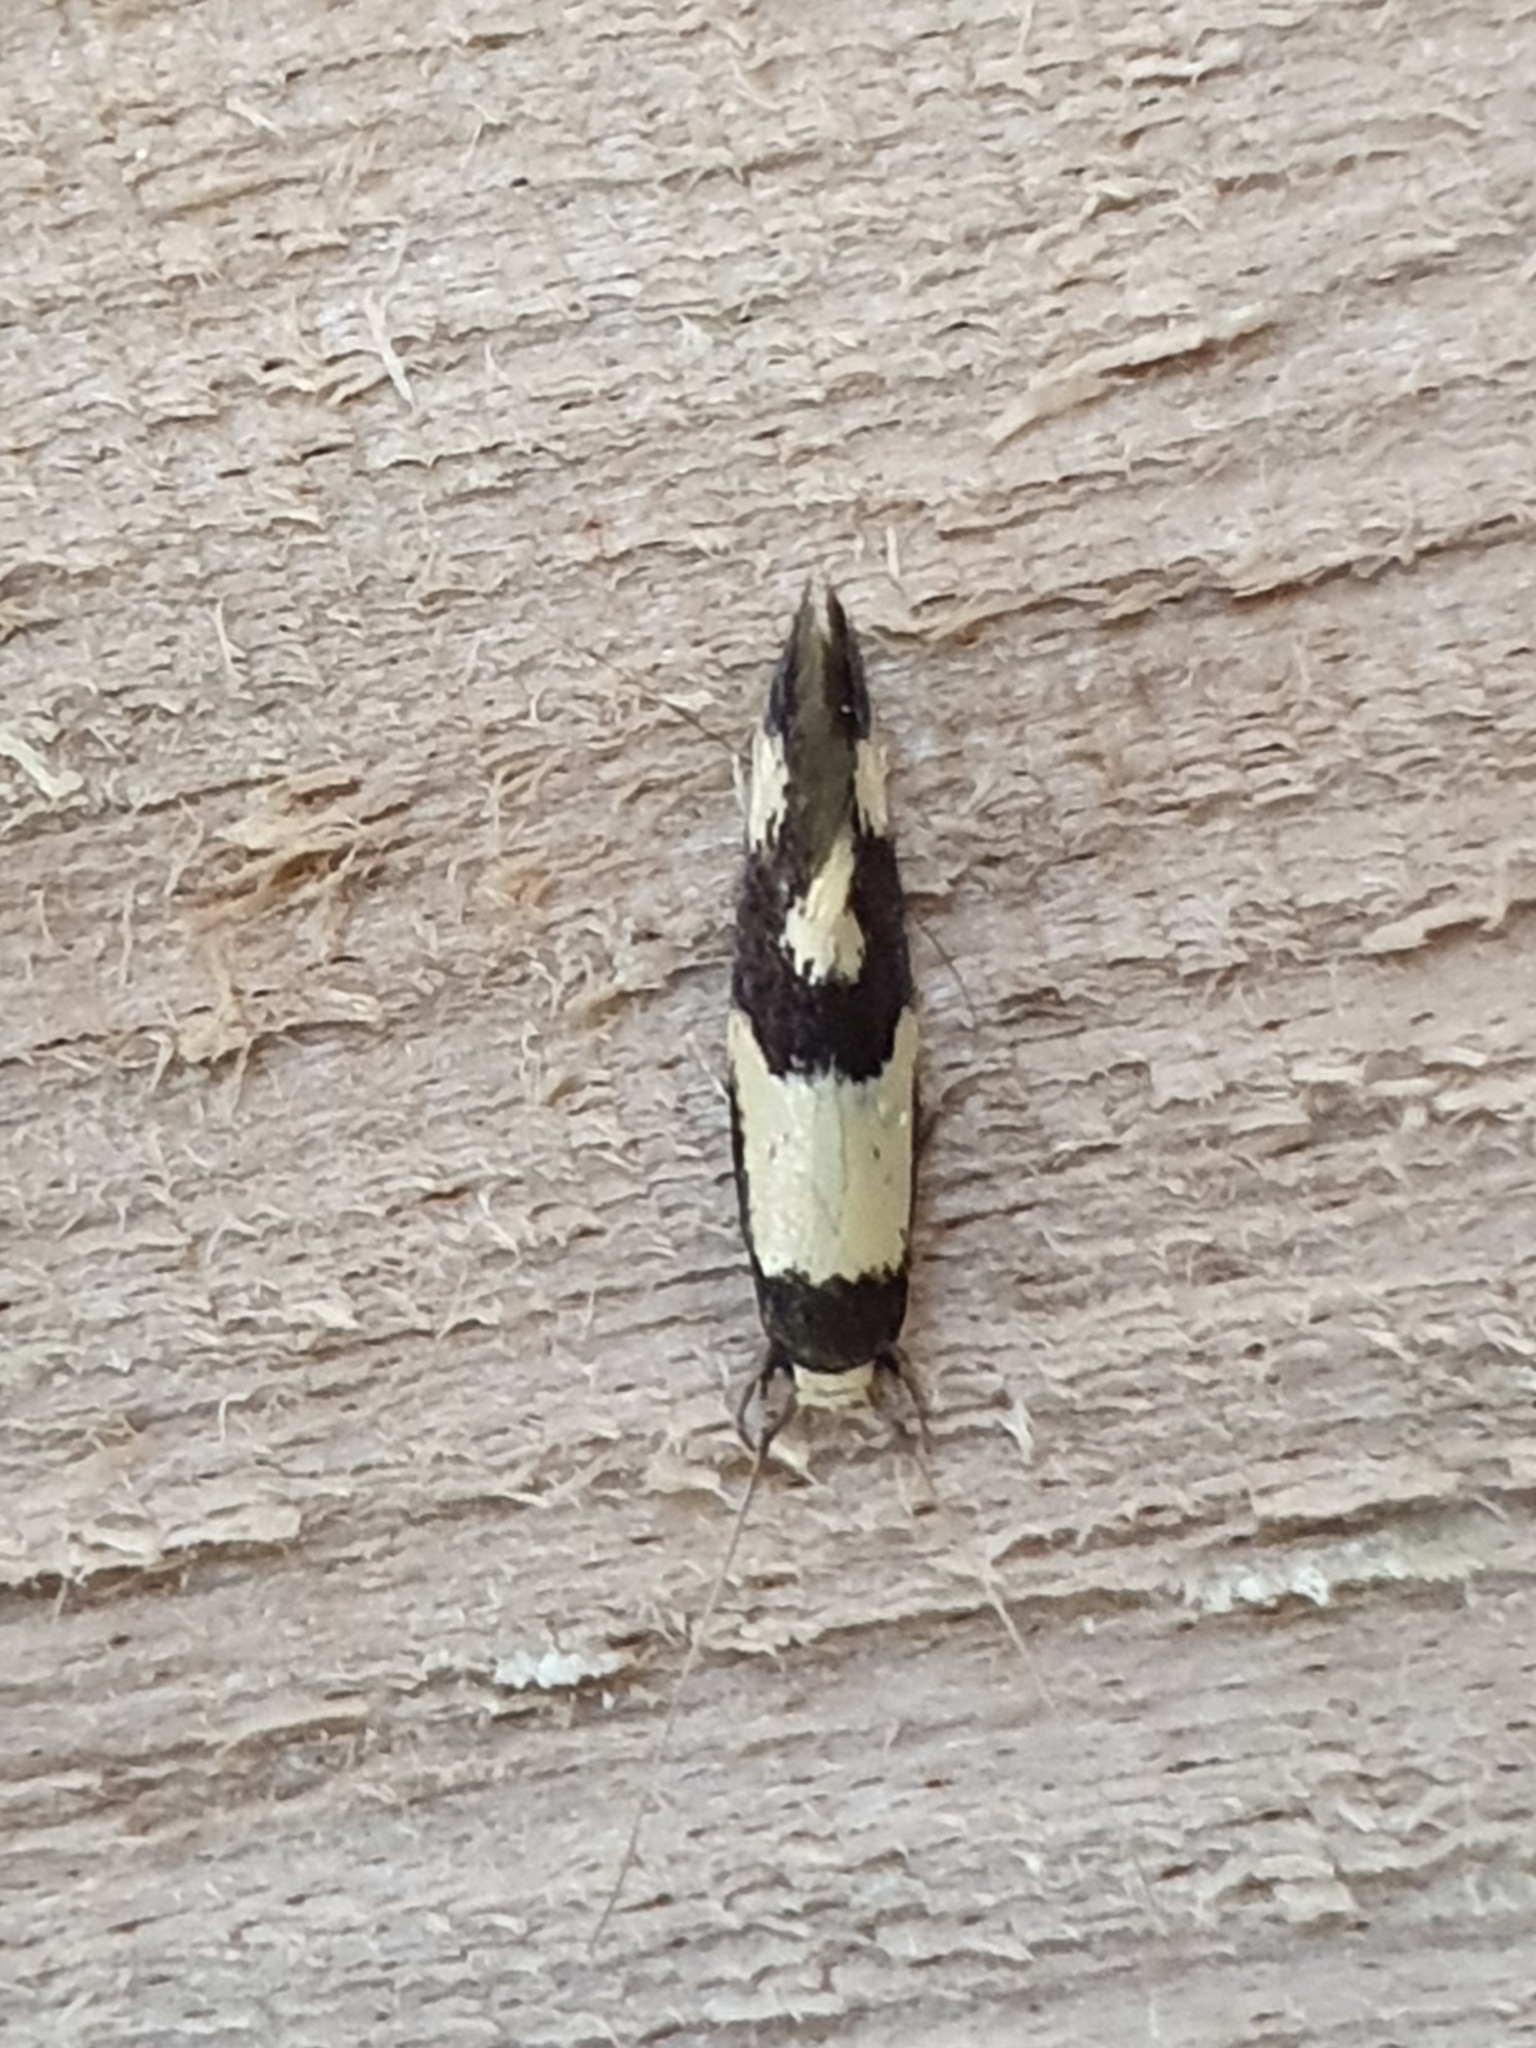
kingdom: Animalia
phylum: Arthropoda
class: Insecta
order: Lepidoptera
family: Tineidae
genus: Opogona
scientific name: Opogona comptella
